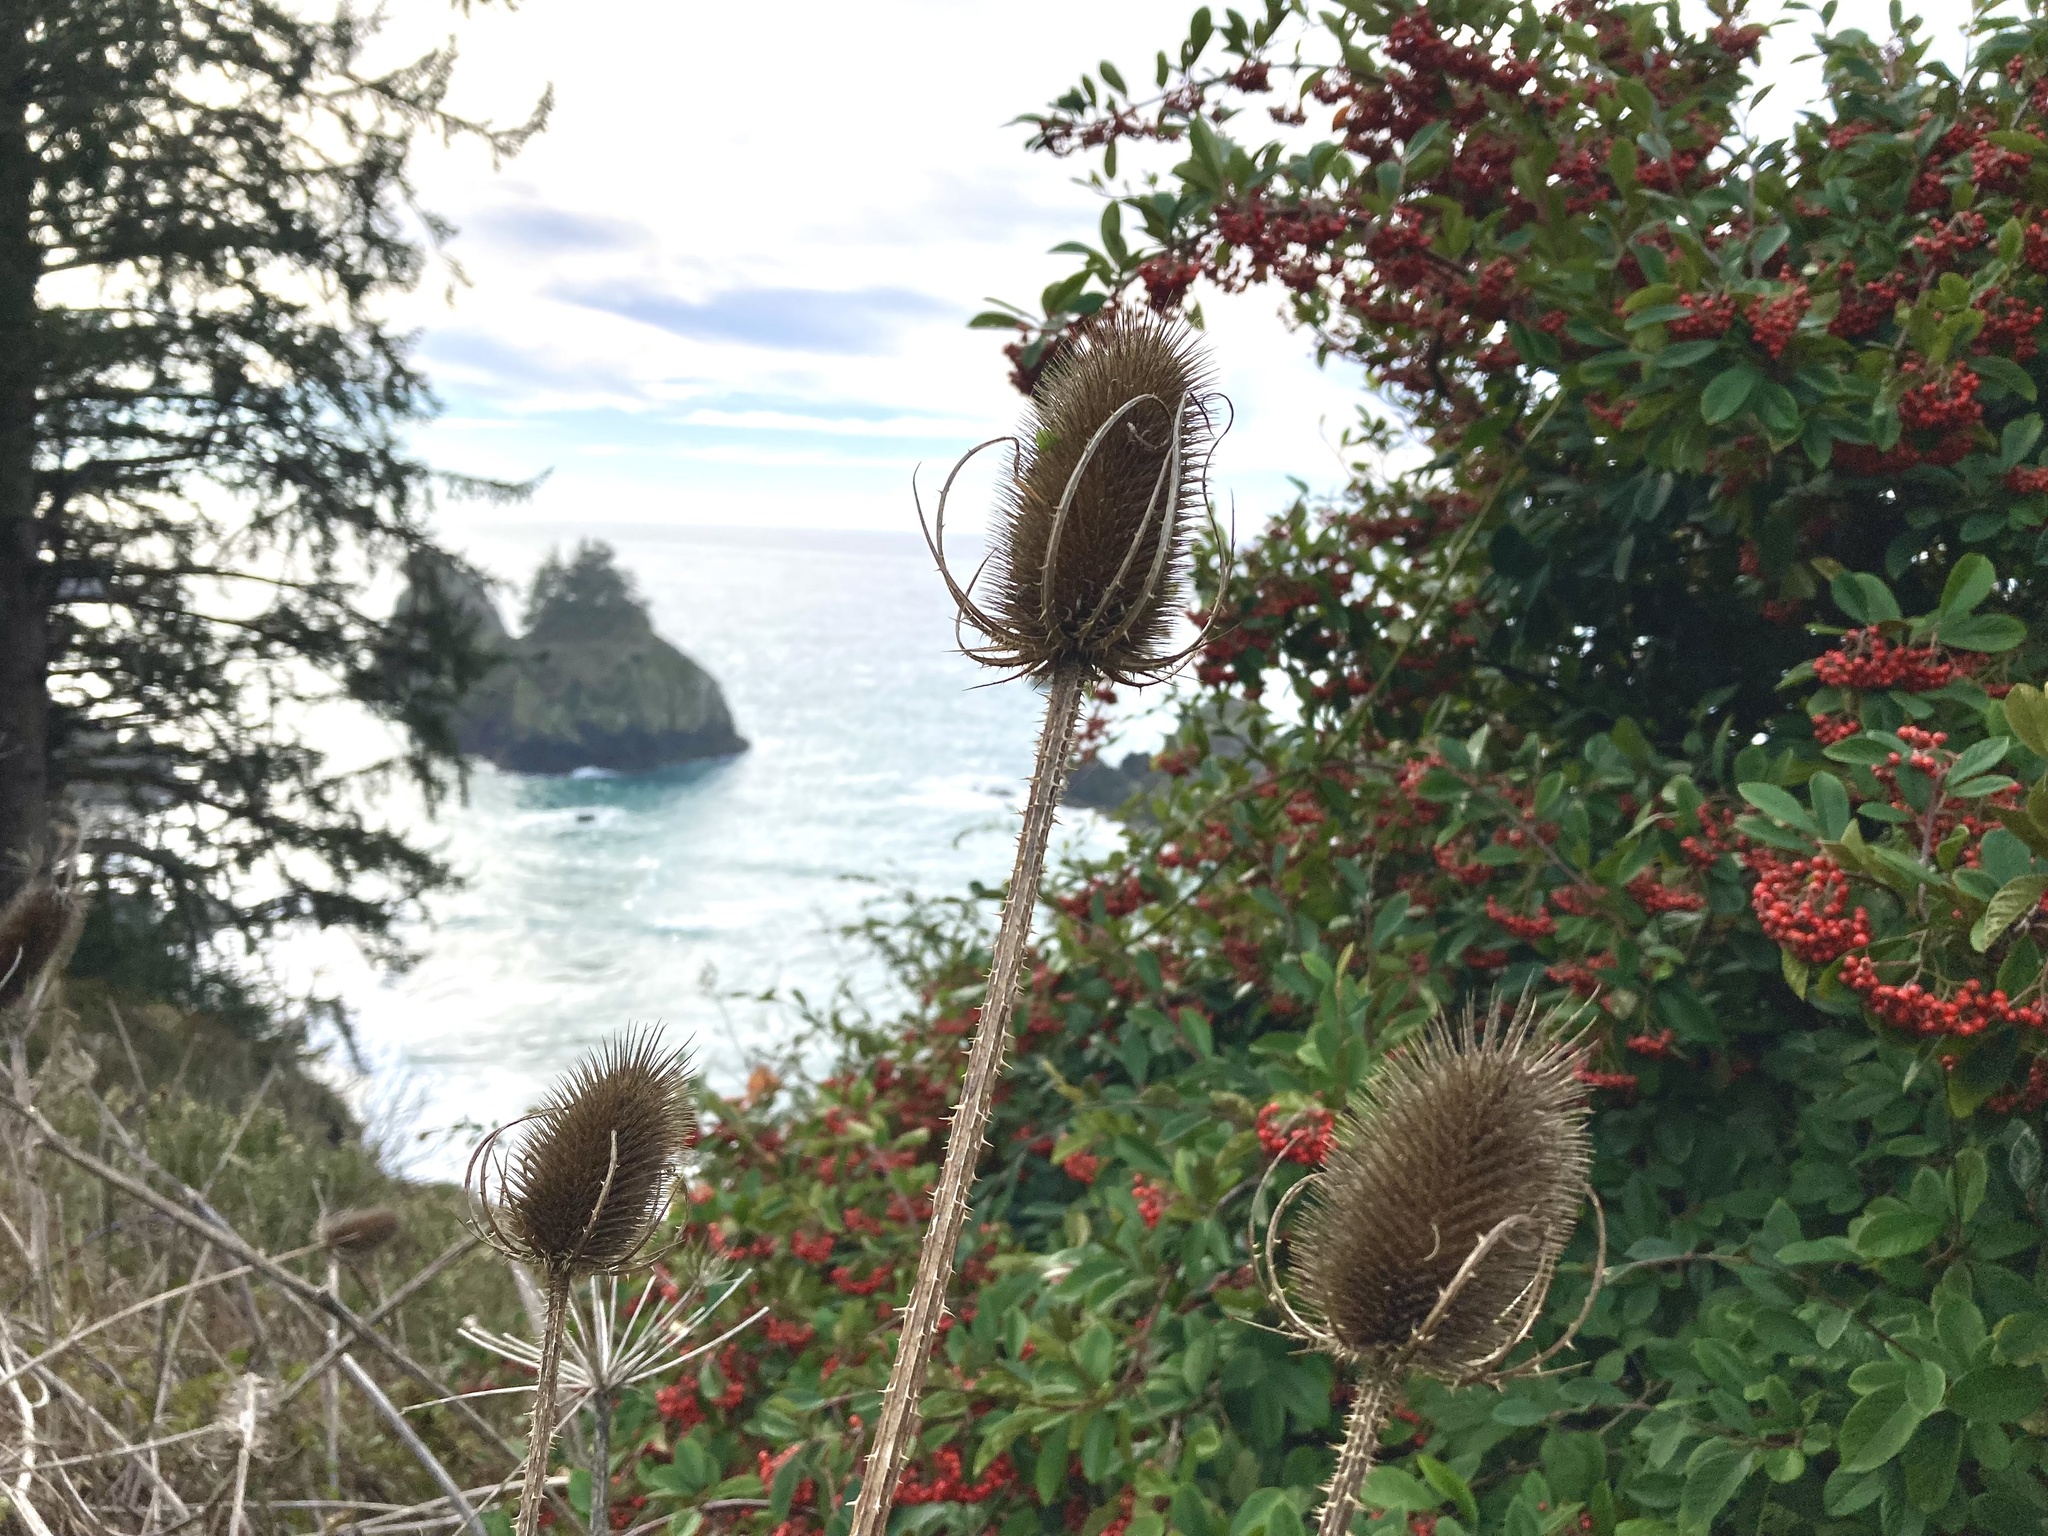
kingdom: Plantae
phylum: Tracheophyta
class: Magnoliopsida
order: Dipsacales
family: Caprifoliaceae
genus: Dipsacus
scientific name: Dipsacus fullonum
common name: Teasel
